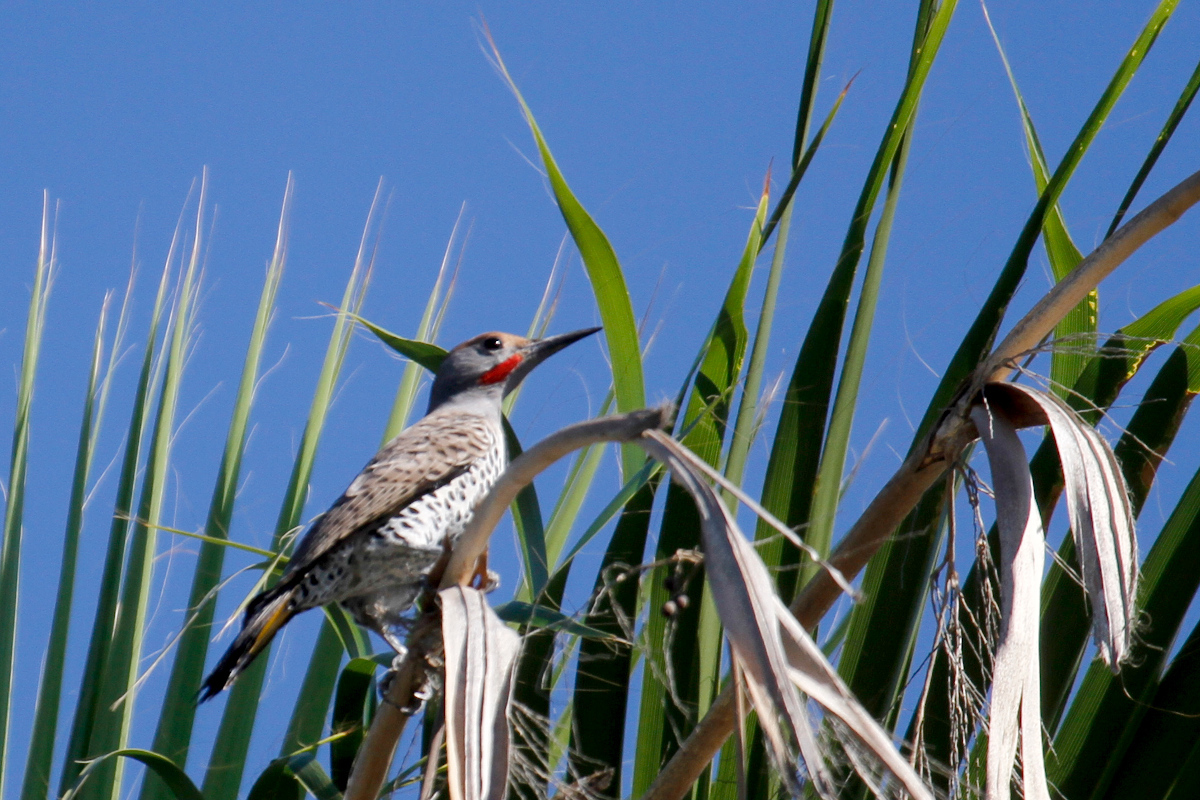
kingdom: Animalia
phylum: Chordata
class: Aves
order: Piciformes
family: Picidae
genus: Colaptes
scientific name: Colaptes chrysoides
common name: Gilded flicker
